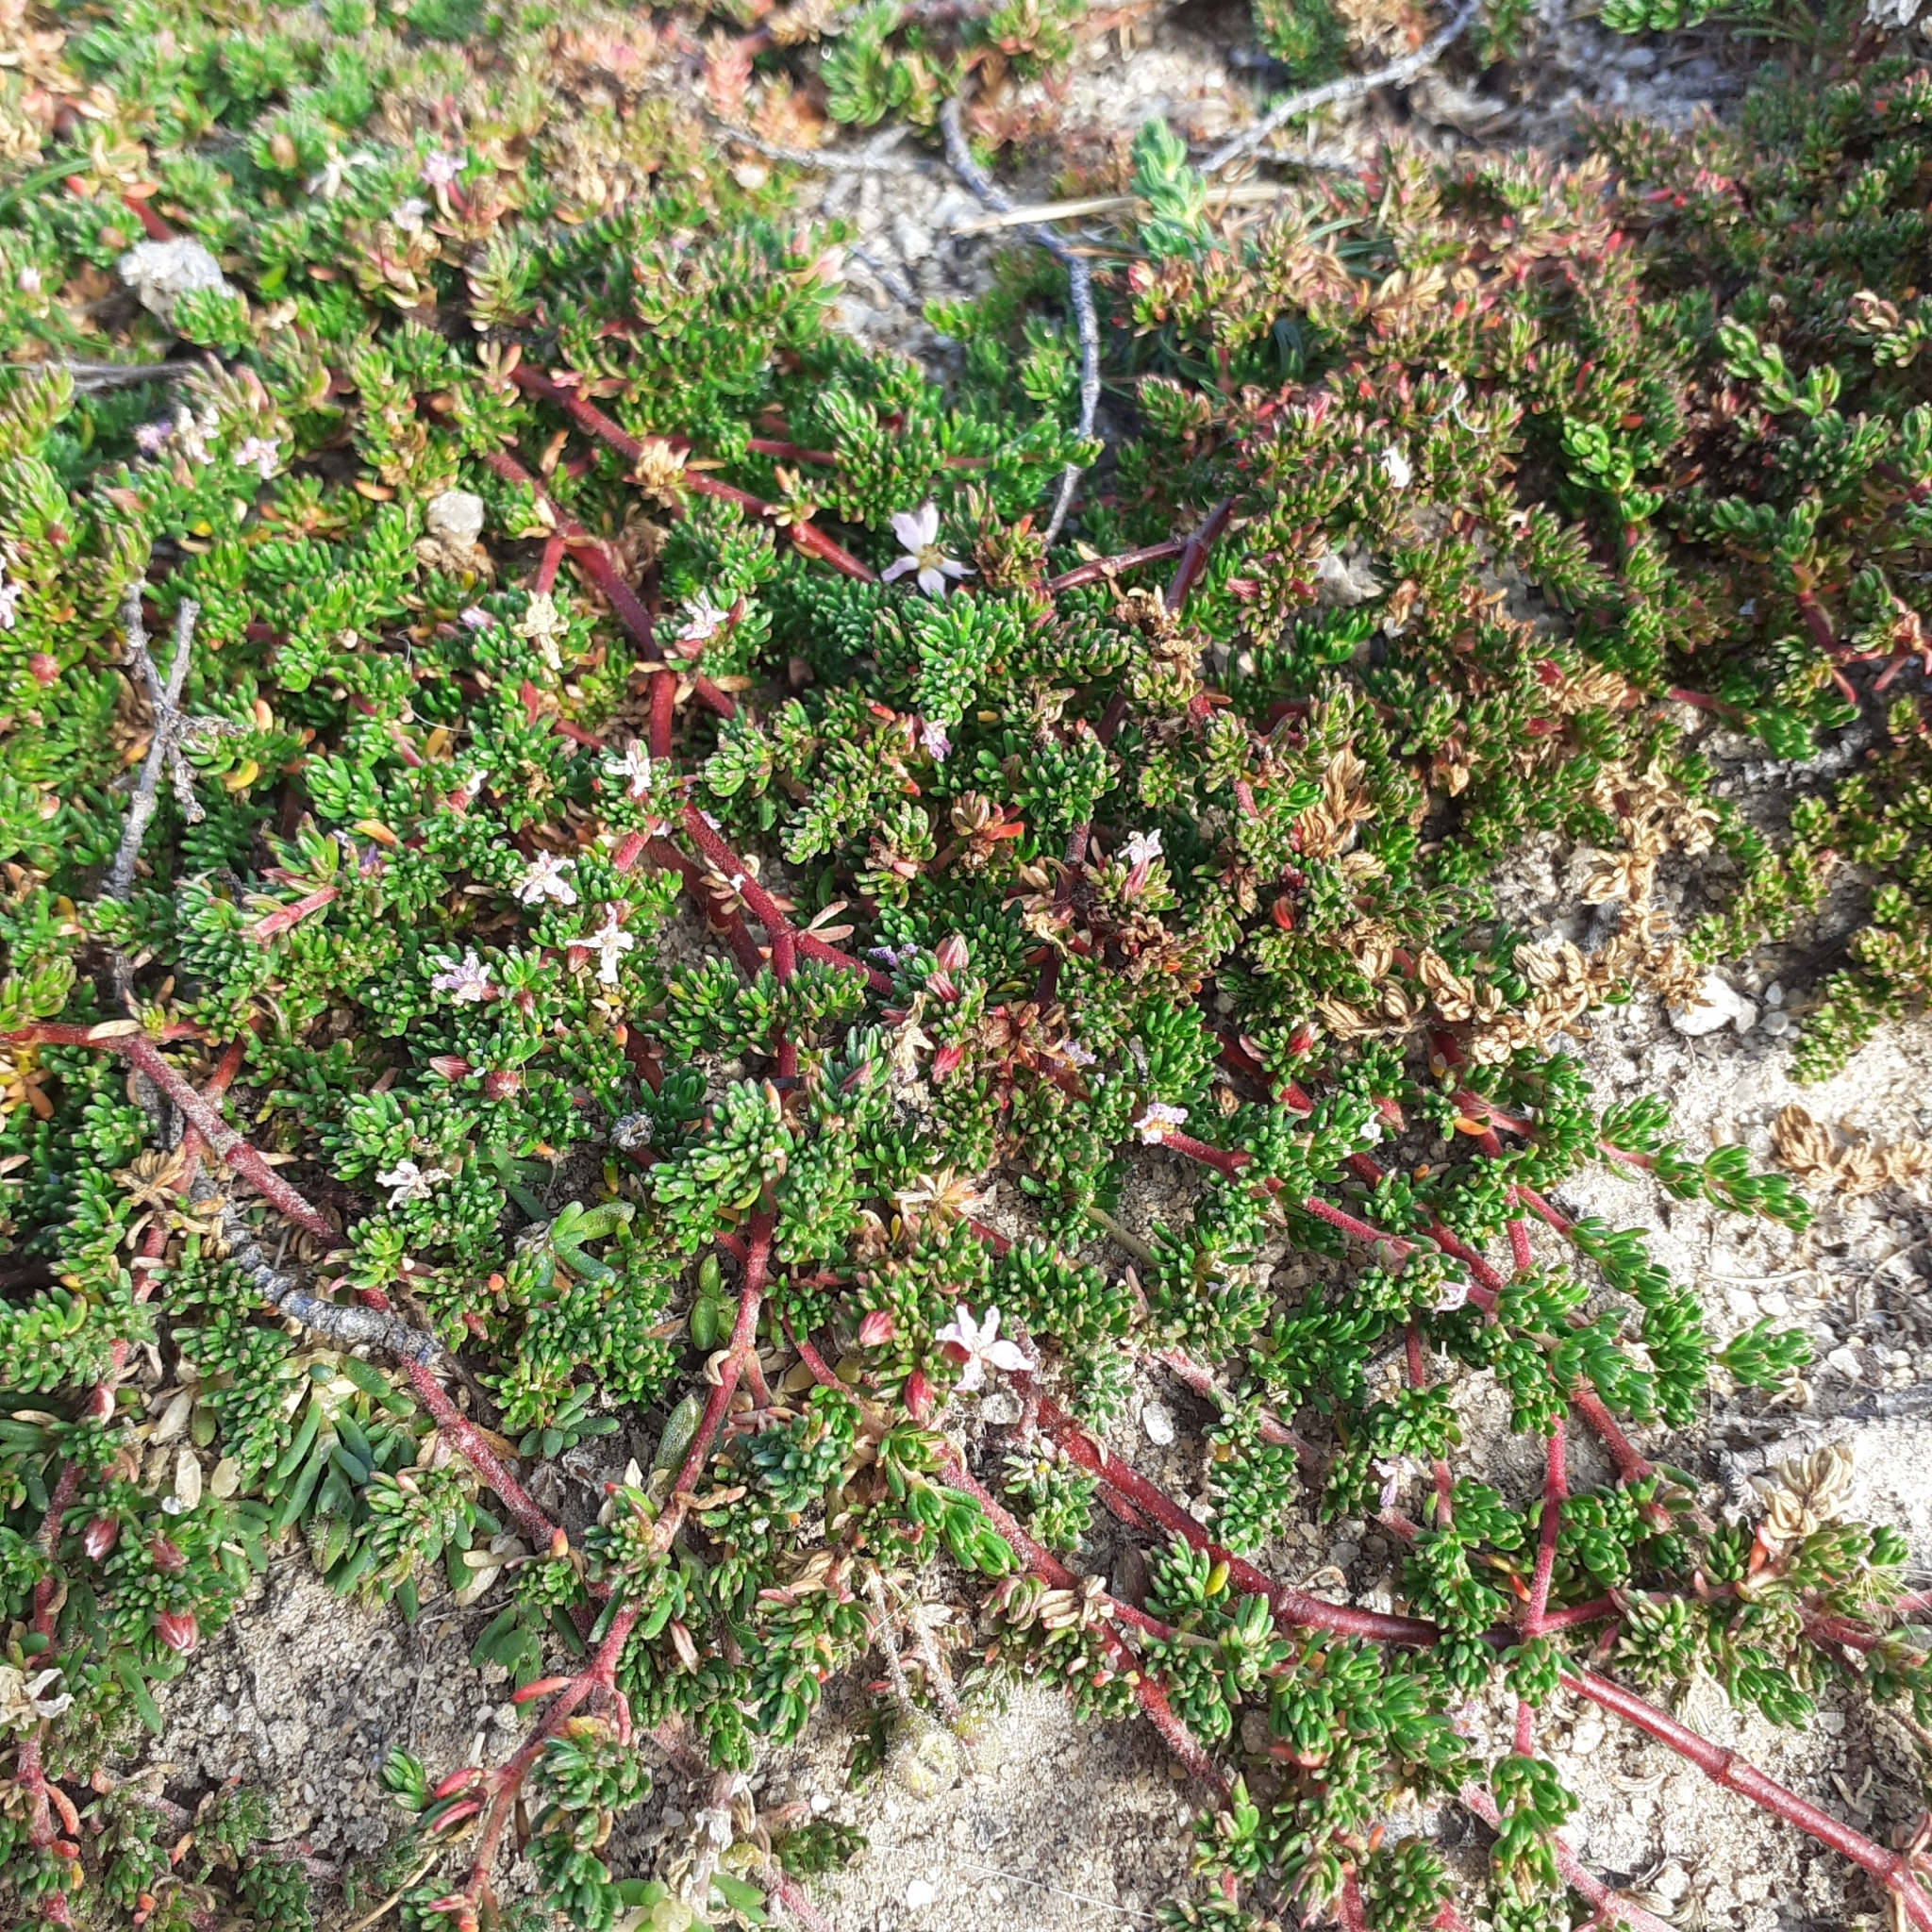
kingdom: Plantae
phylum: Tracheophyta
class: Magnoliopsida
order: Caryophyllales
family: Frankeniaceae
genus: Frankenia
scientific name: Frankenia laevis
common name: Sea-heath
